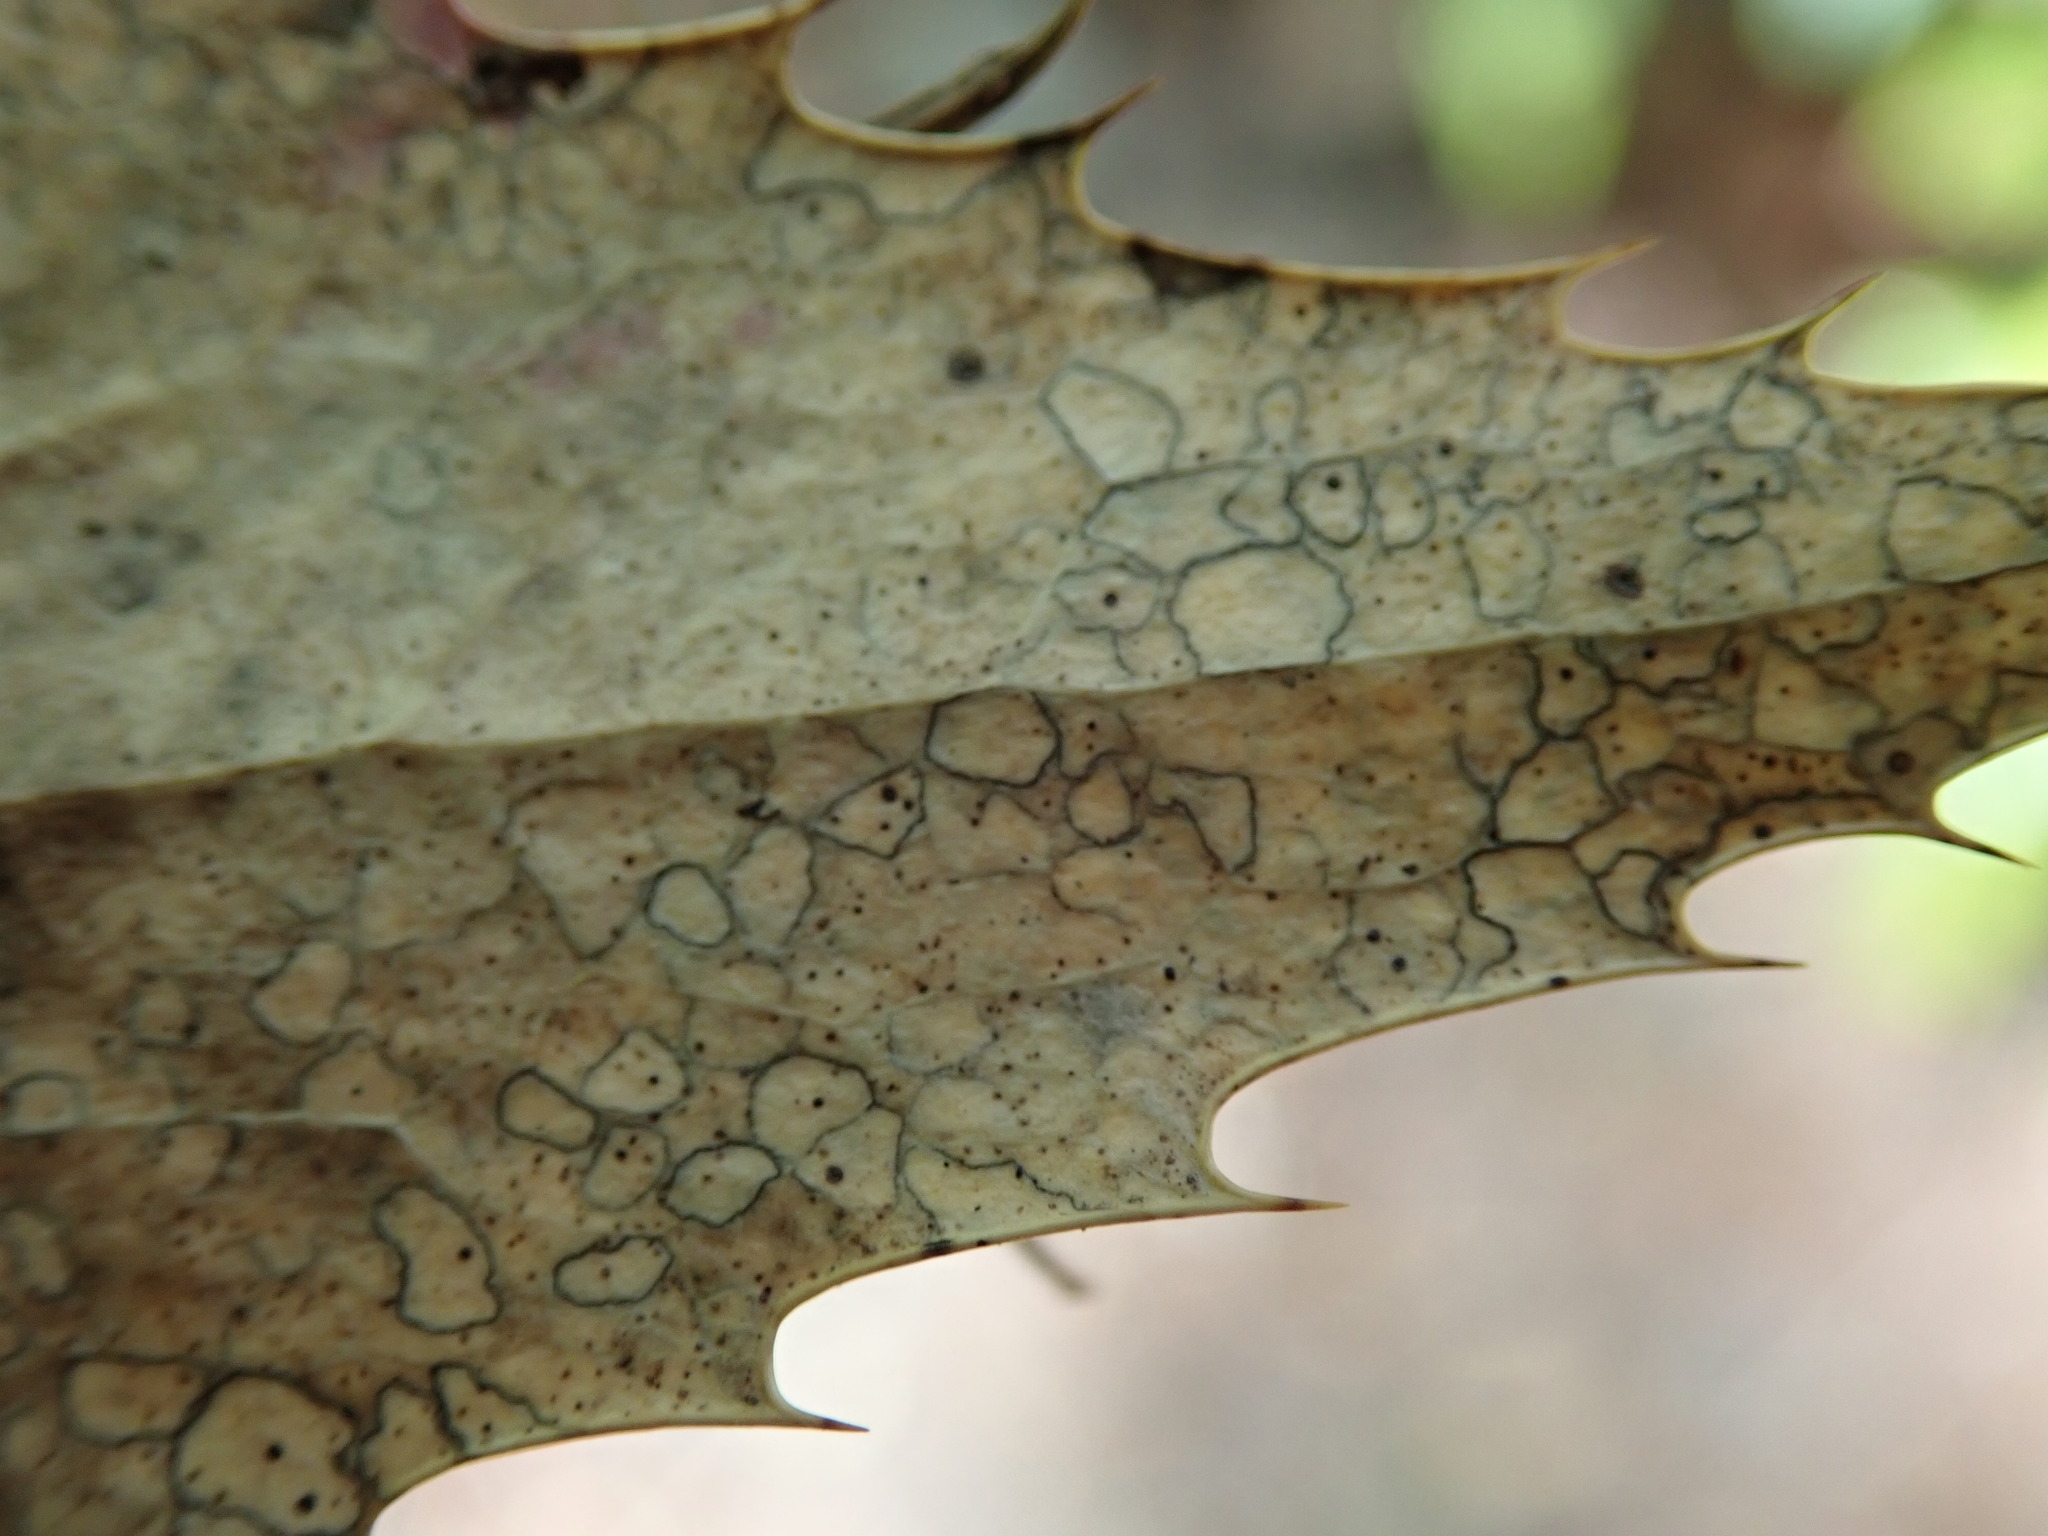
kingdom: Fungi
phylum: Ascomycota
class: Leotiomycetes
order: Rhytismatales
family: Rhytismataceae
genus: Coccomyces
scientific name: Coccomyces dentatus
